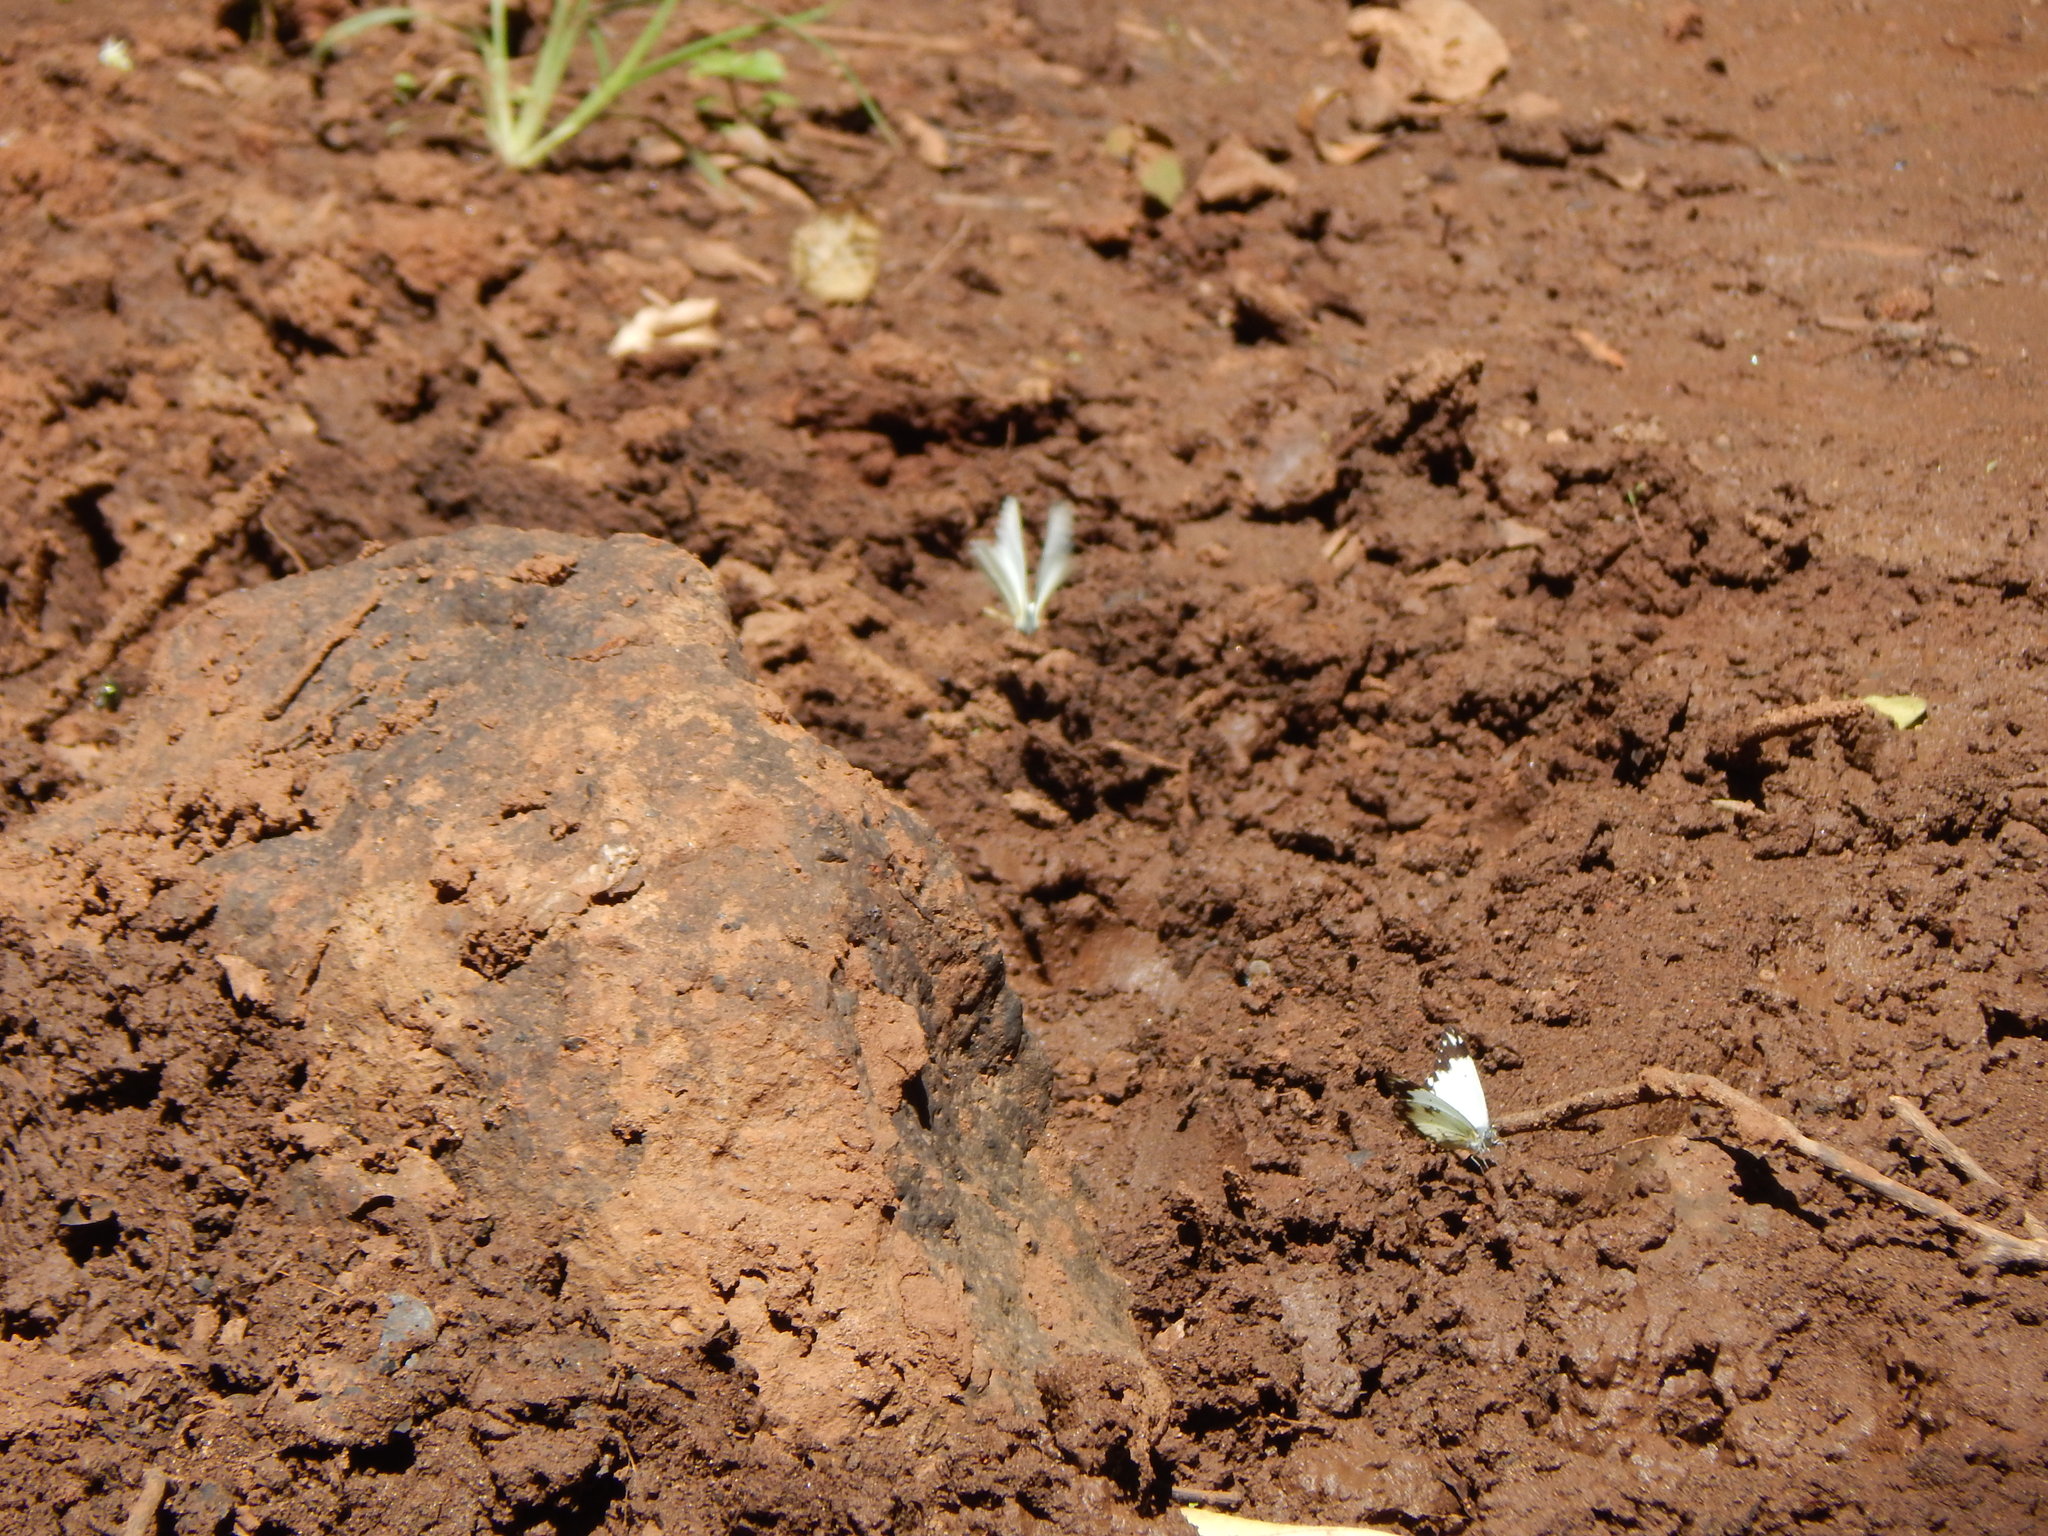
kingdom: Animalia
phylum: Arthropoda
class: Insecta
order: Lepidoptera
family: Pieridae
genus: Belenois
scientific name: Belenois creona
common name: African caper white
